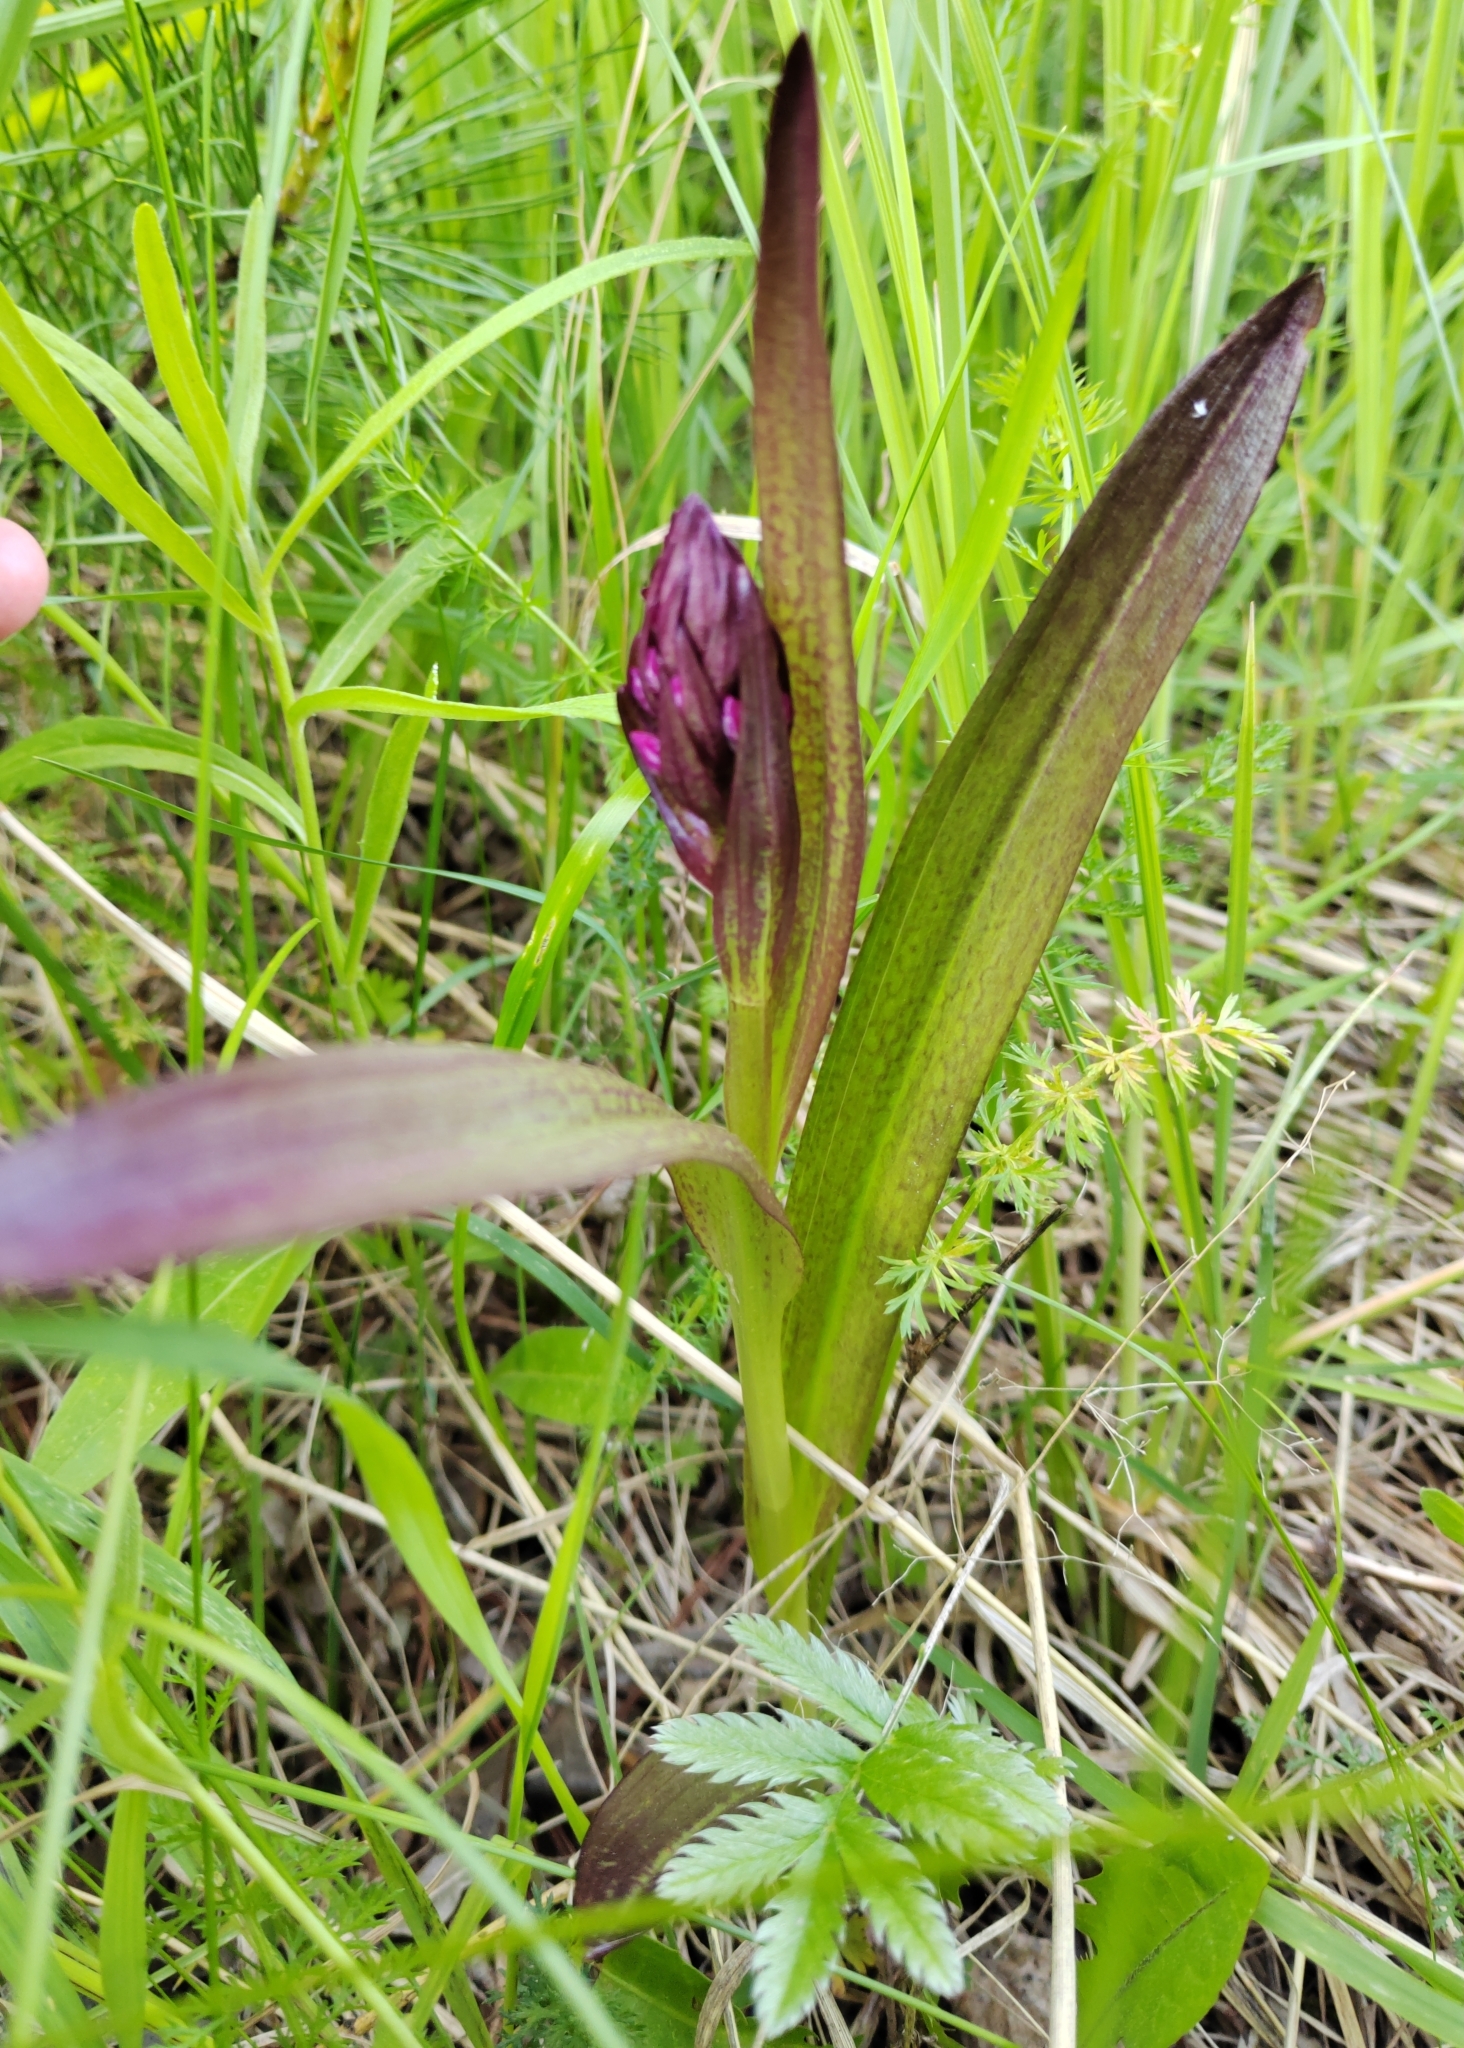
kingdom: Plantae
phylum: Tracheophyta
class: Liliopsida
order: Asparagales
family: Orchidaceae
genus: Dactylorhiza
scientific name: Dactylorhiza incarnata
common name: Early marsh-orchid
